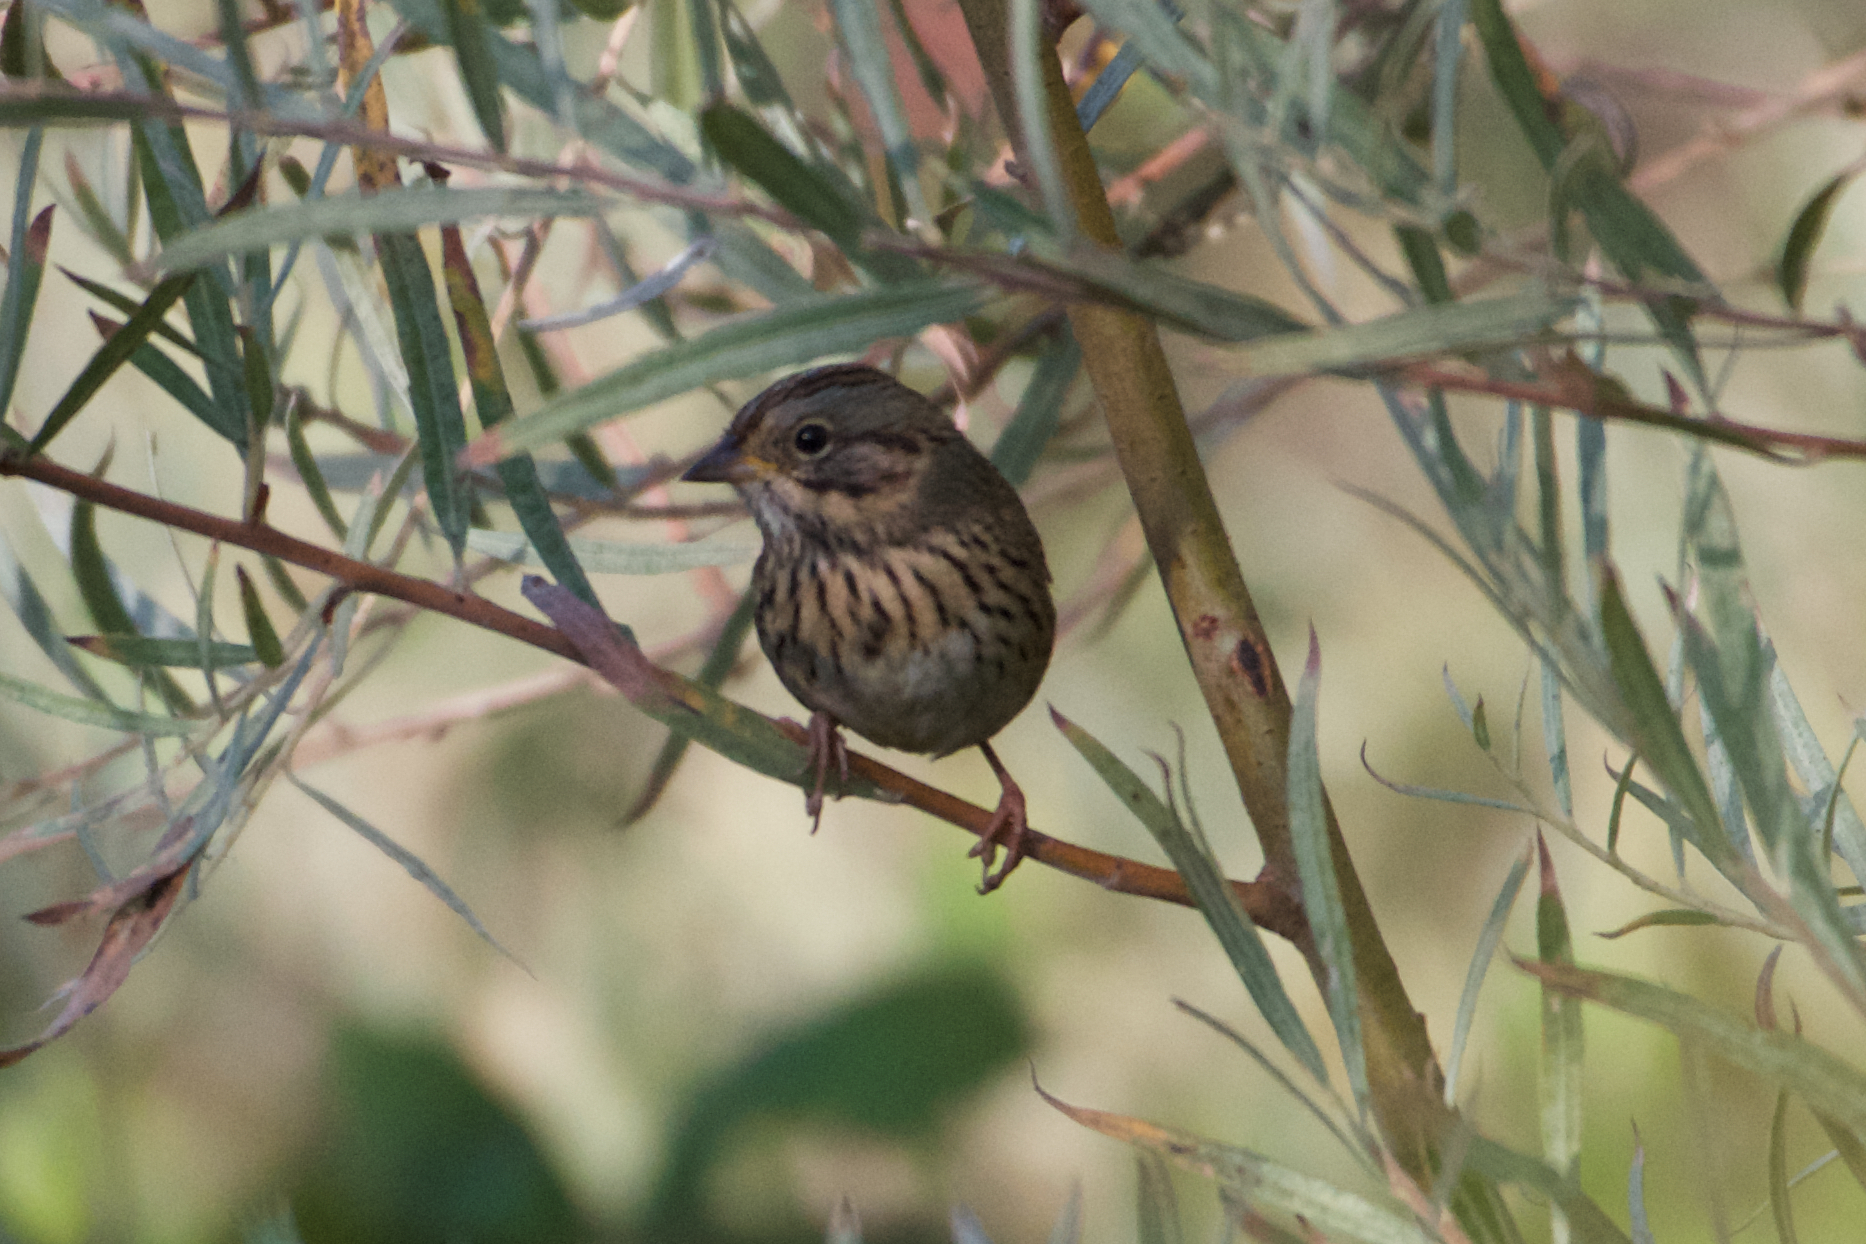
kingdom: Animalia
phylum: Chordata
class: Aves
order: Passeriformes
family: Passerellidae
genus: Melospiza
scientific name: Melospiza lincolnii
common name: Lincoln's sparrow
